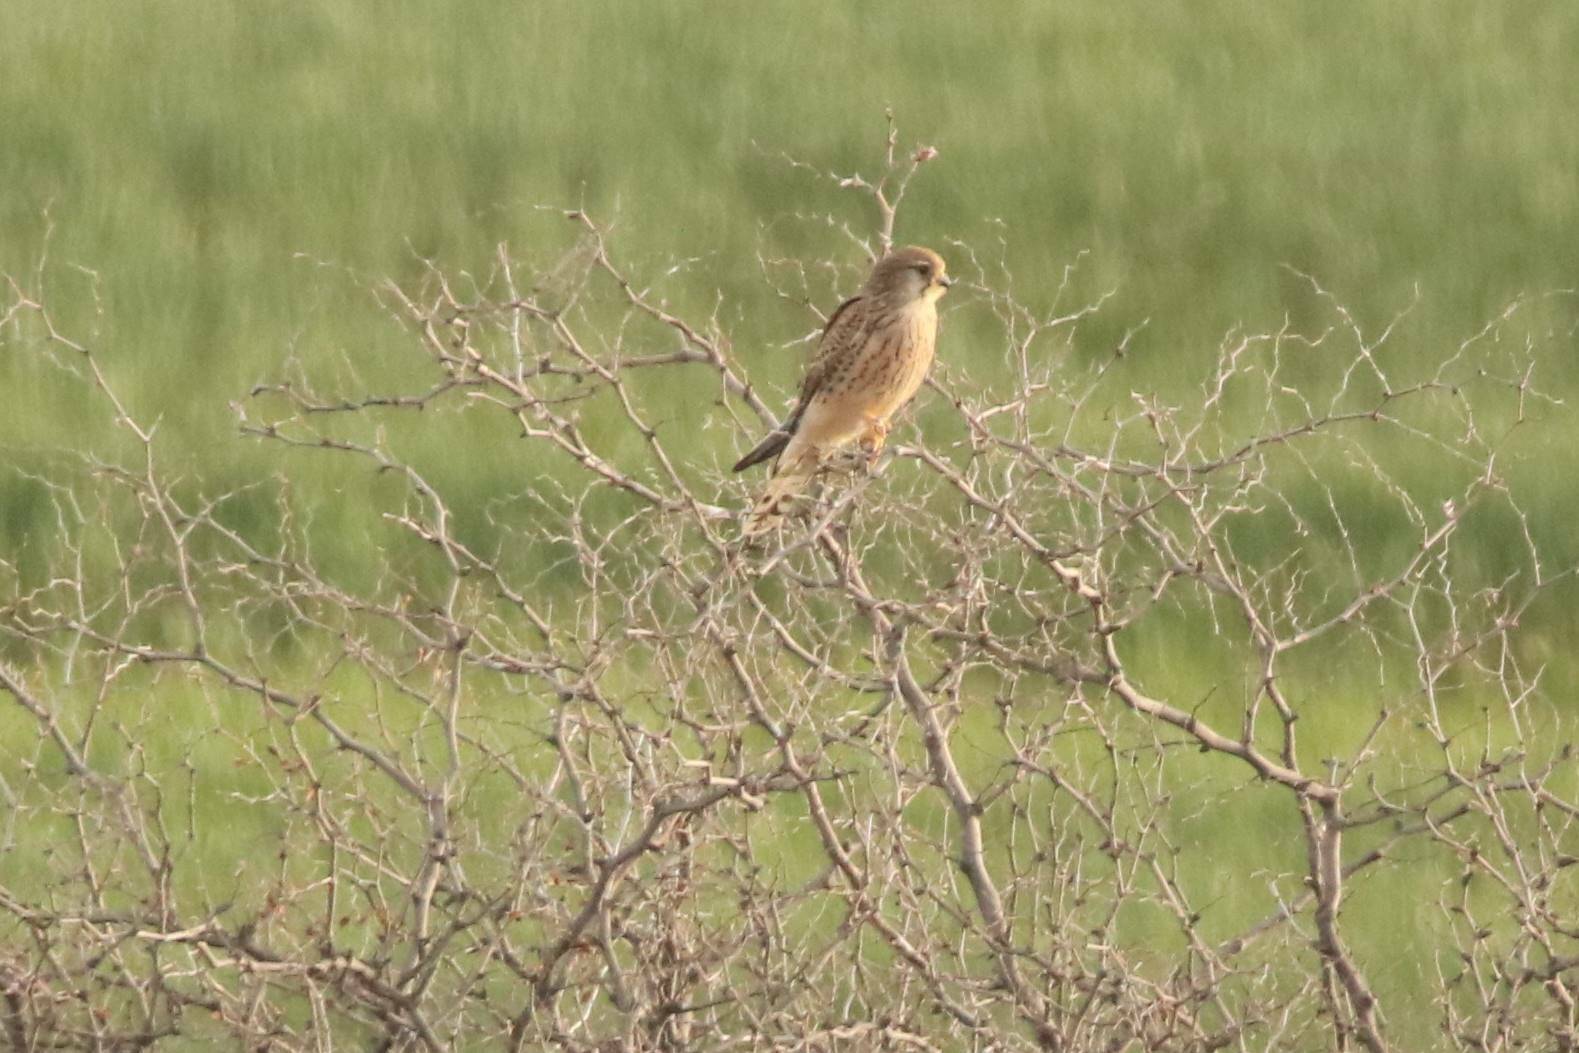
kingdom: Animalia
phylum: Chordata
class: Aves
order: Falconiformes
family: Falconidae
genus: Falco
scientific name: Falco tinnunculus
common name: Common kestrel
